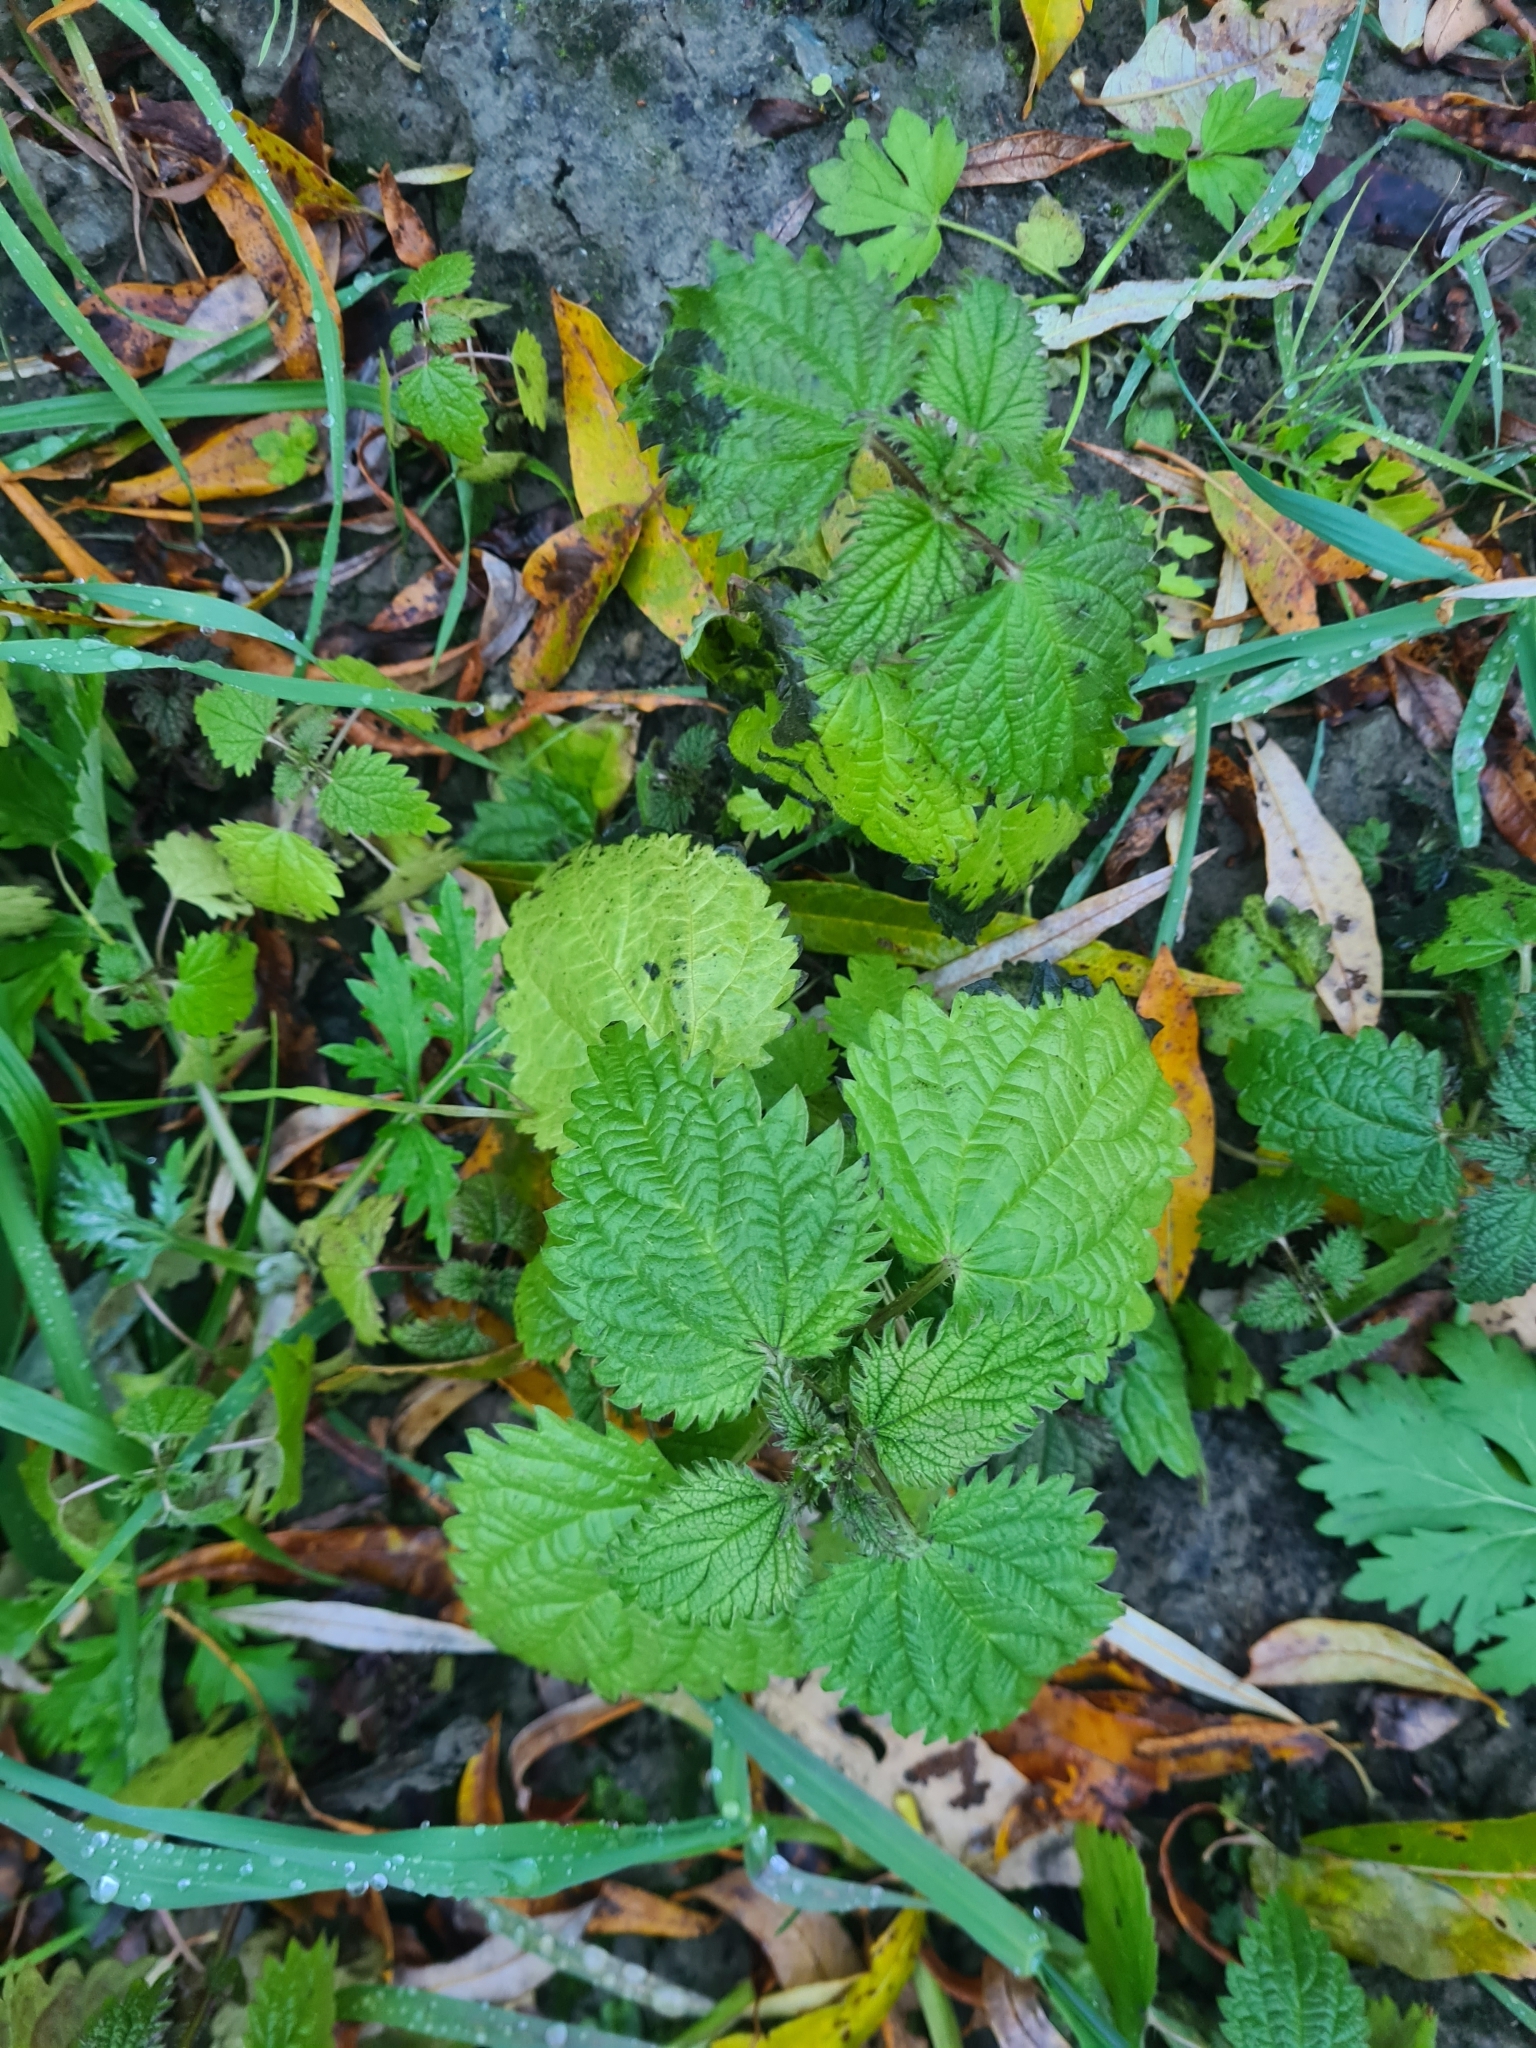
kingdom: Plantae
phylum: Tracheophyta
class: Magnoliopsida
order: Rosales
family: Urticaceae
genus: Urtica
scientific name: Urtica dioica
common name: Common nettle
